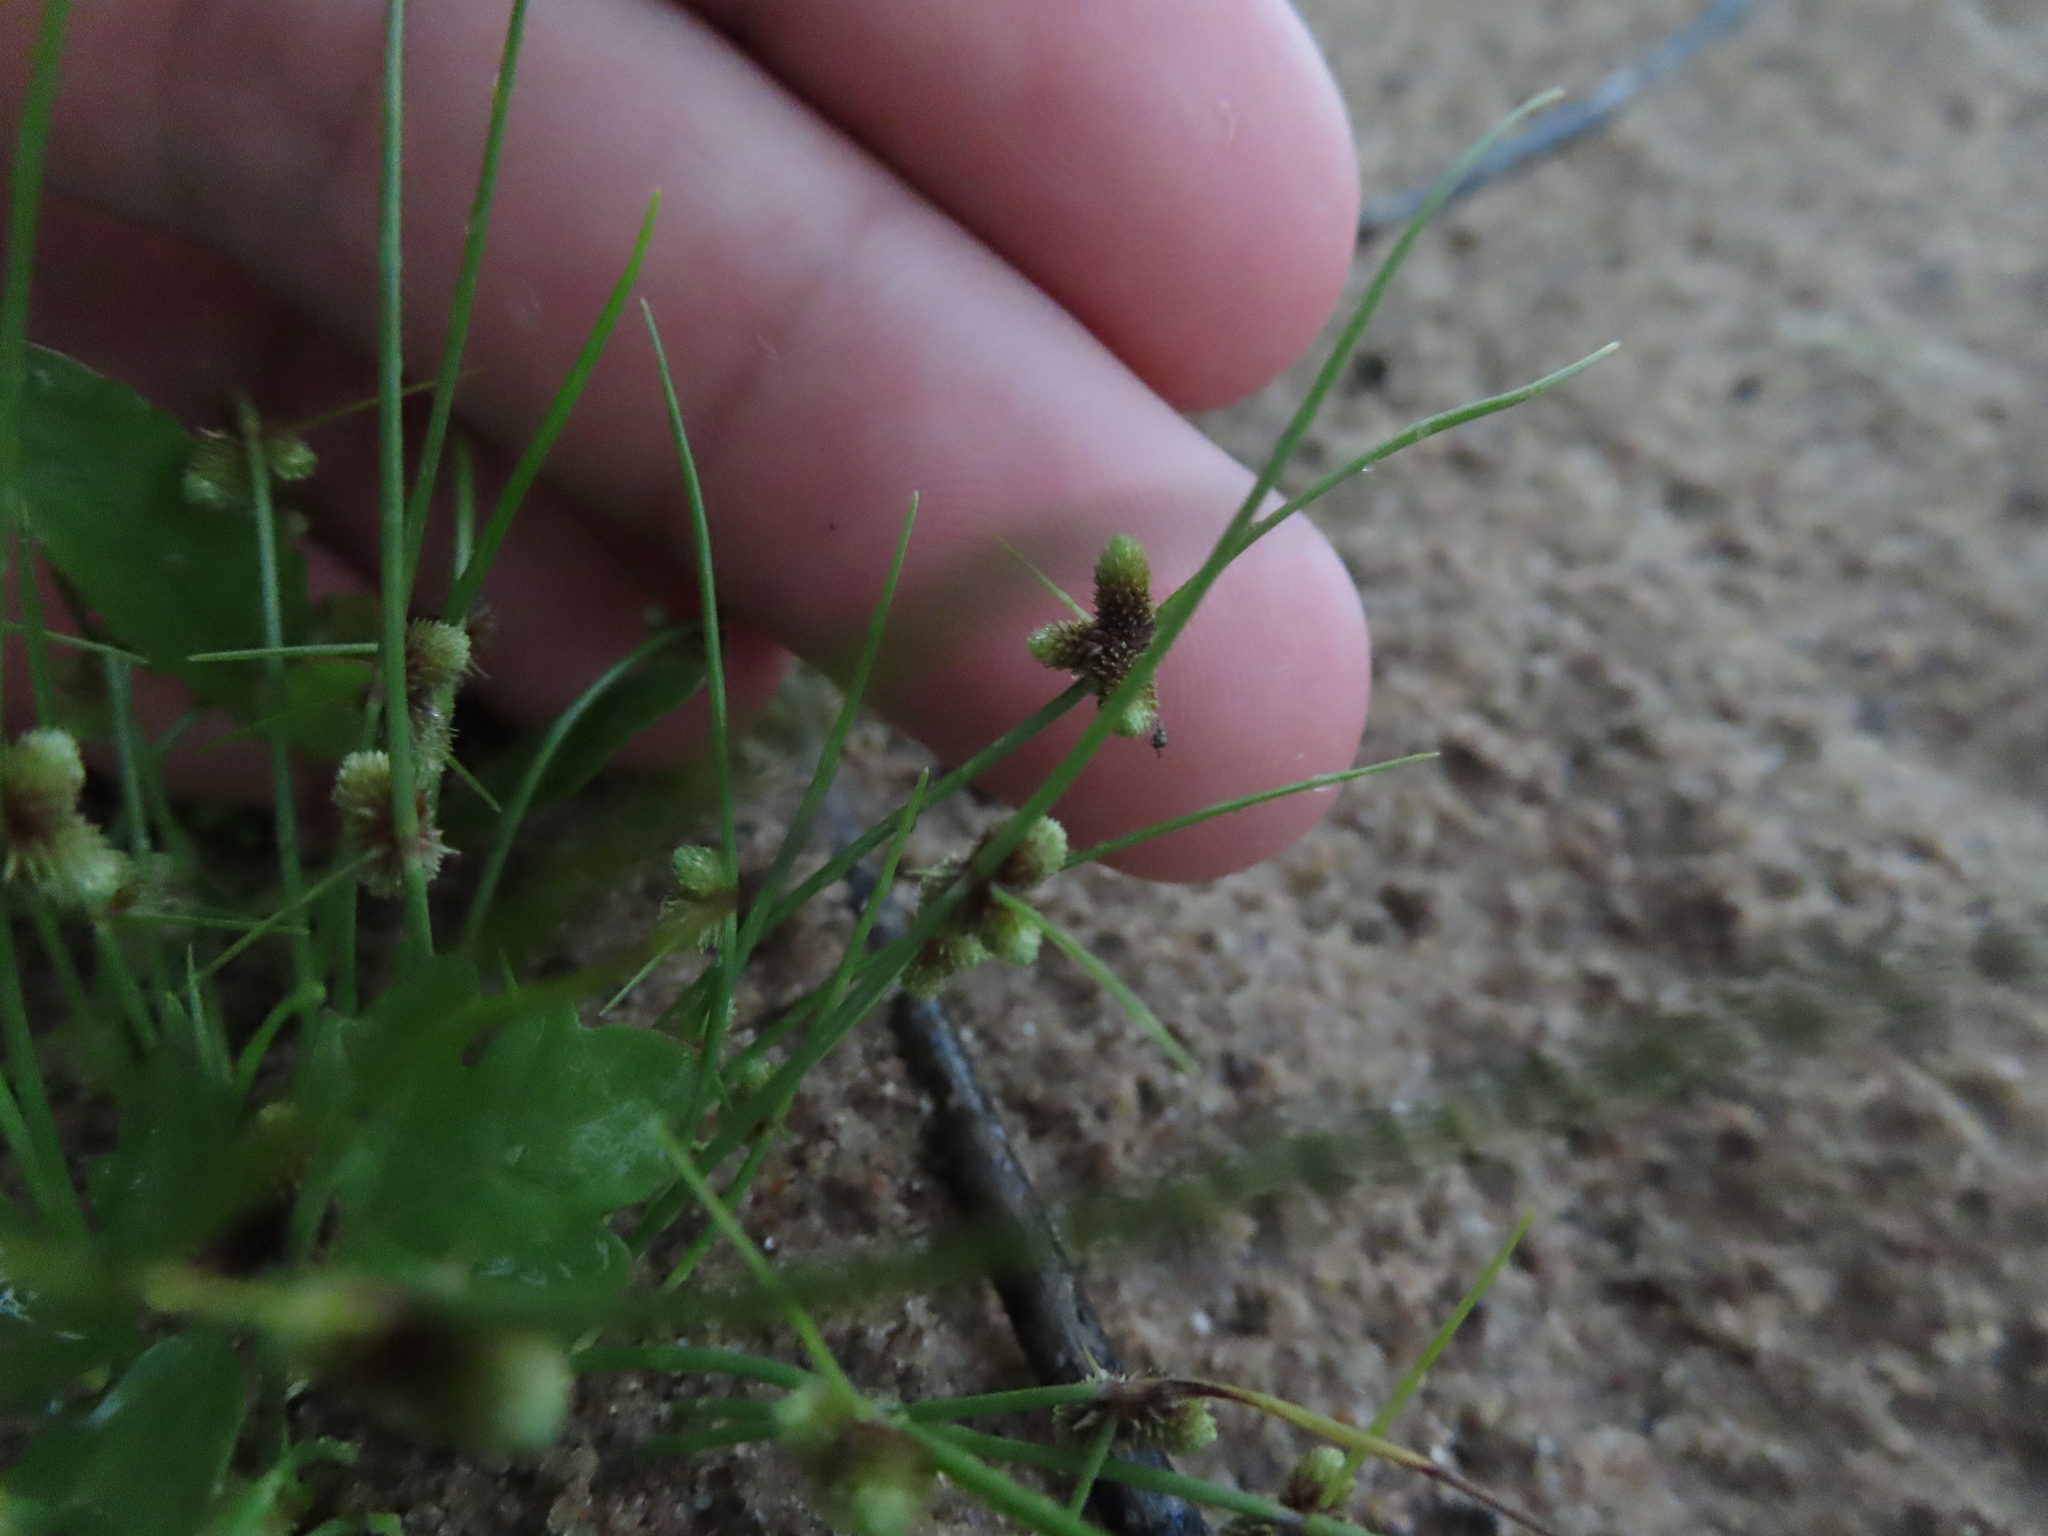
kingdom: Plantae
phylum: Tracheophyta
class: Liliopsida
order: Poales
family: Cyperaceae
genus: Cyperus
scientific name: Cyperus subsquarrosus
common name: Dwarf bulrush
